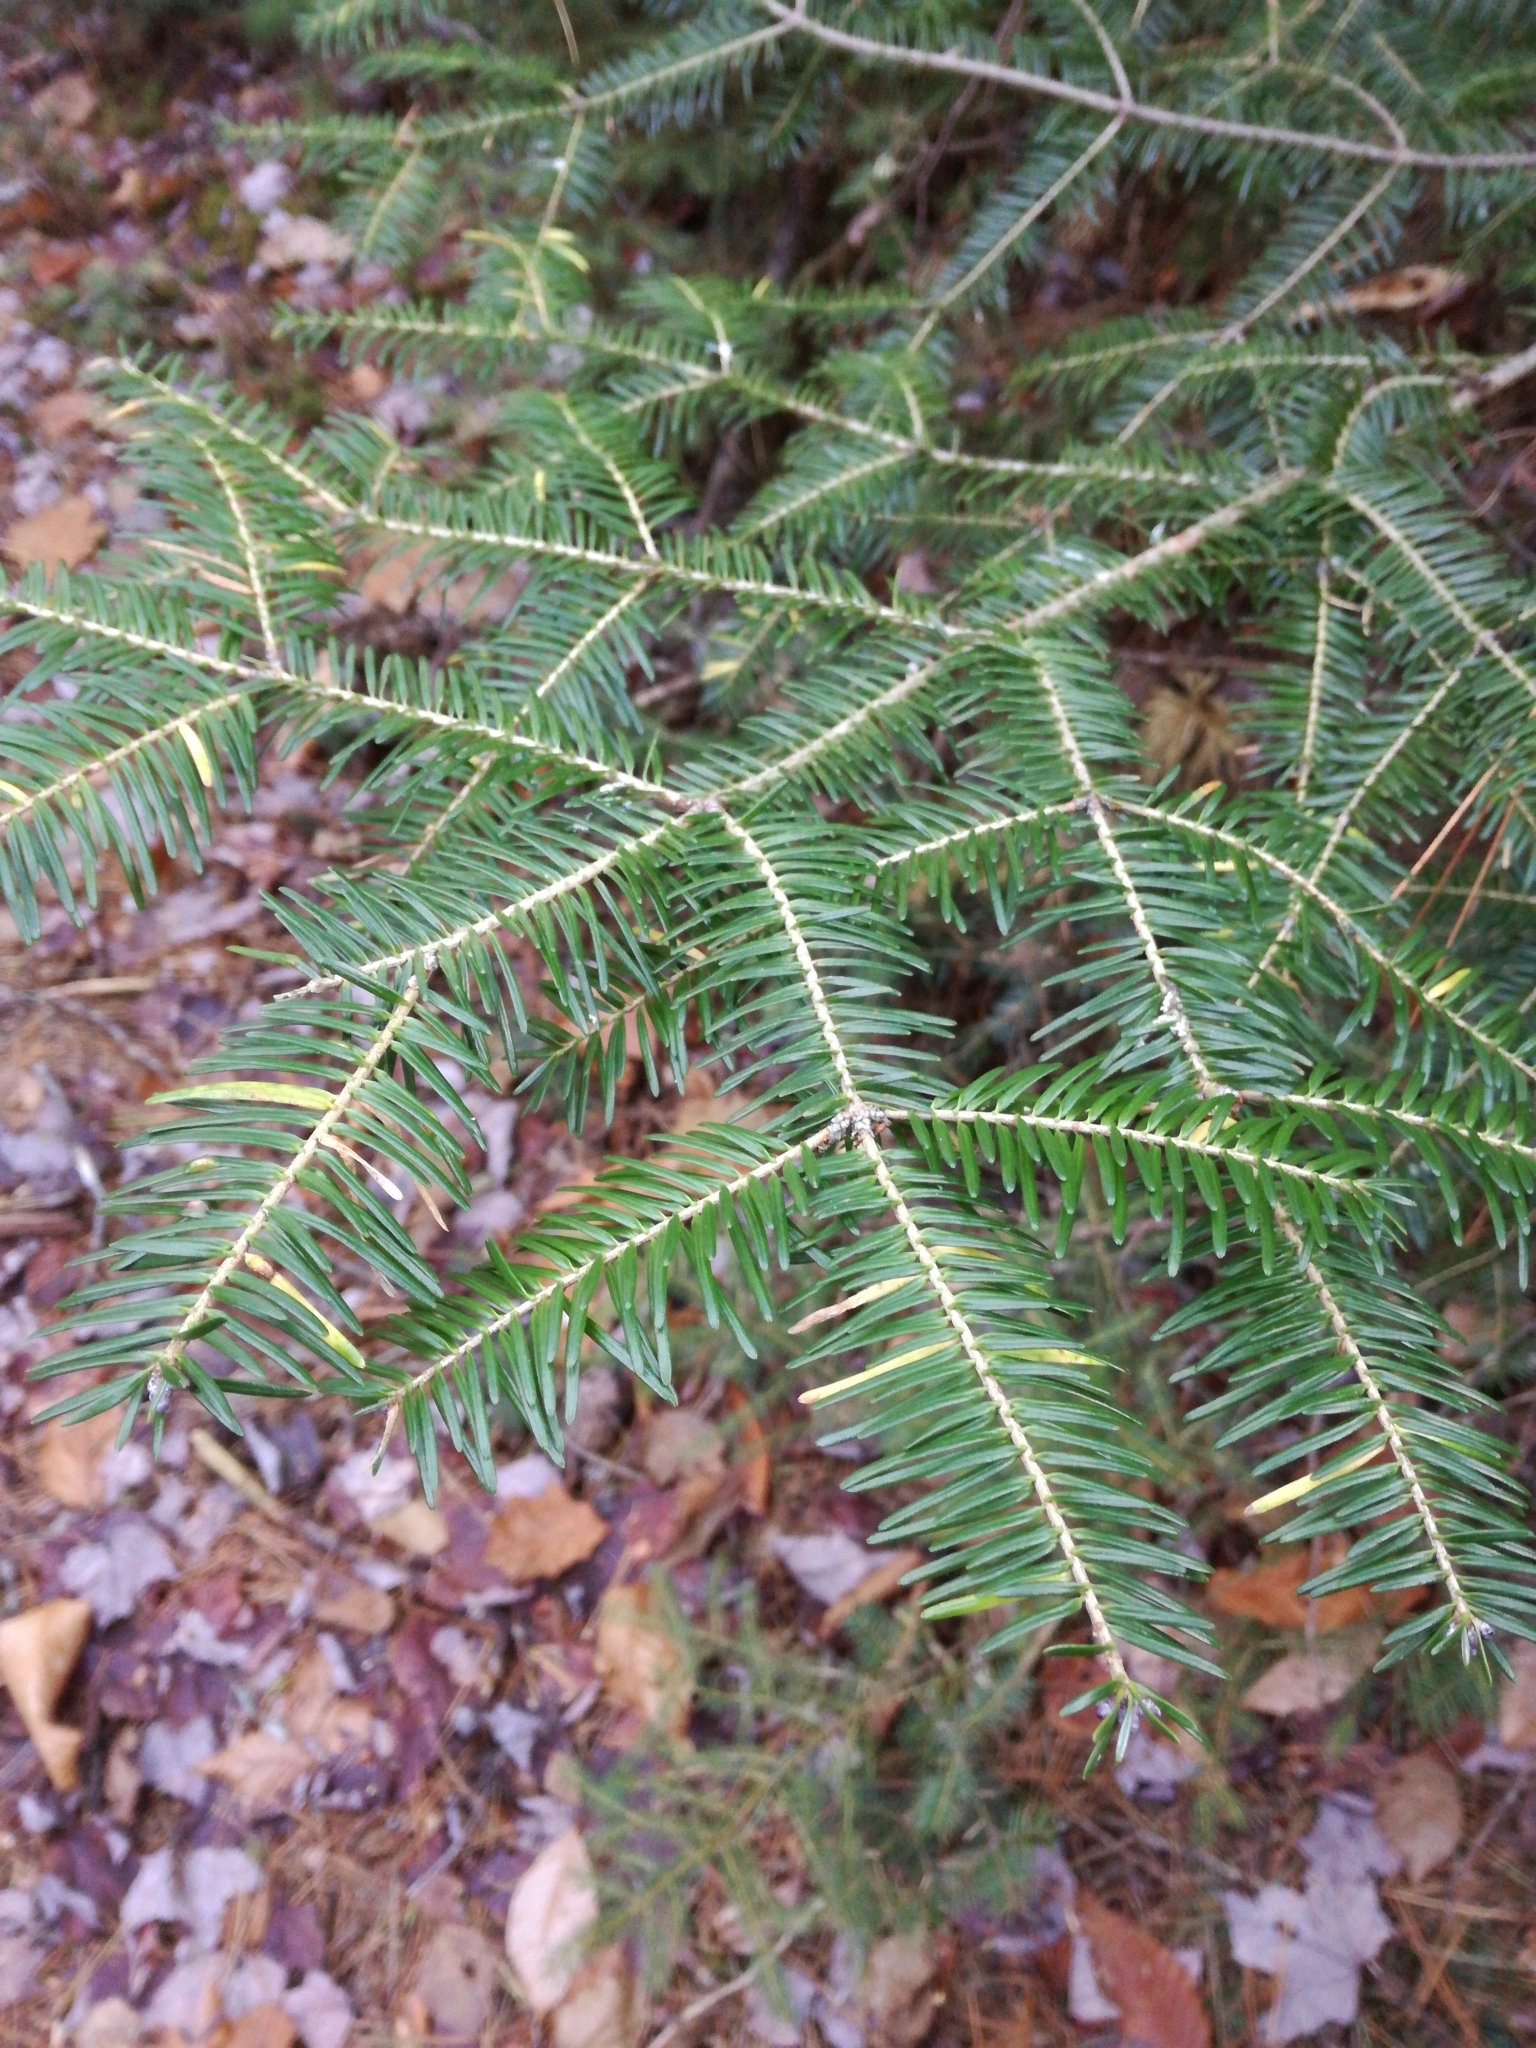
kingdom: Plantae
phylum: Tracheophyta
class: Pinopsida
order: Pinales
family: Pinaceae
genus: Abies
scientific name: Abies balsamea
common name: Balsam fir
